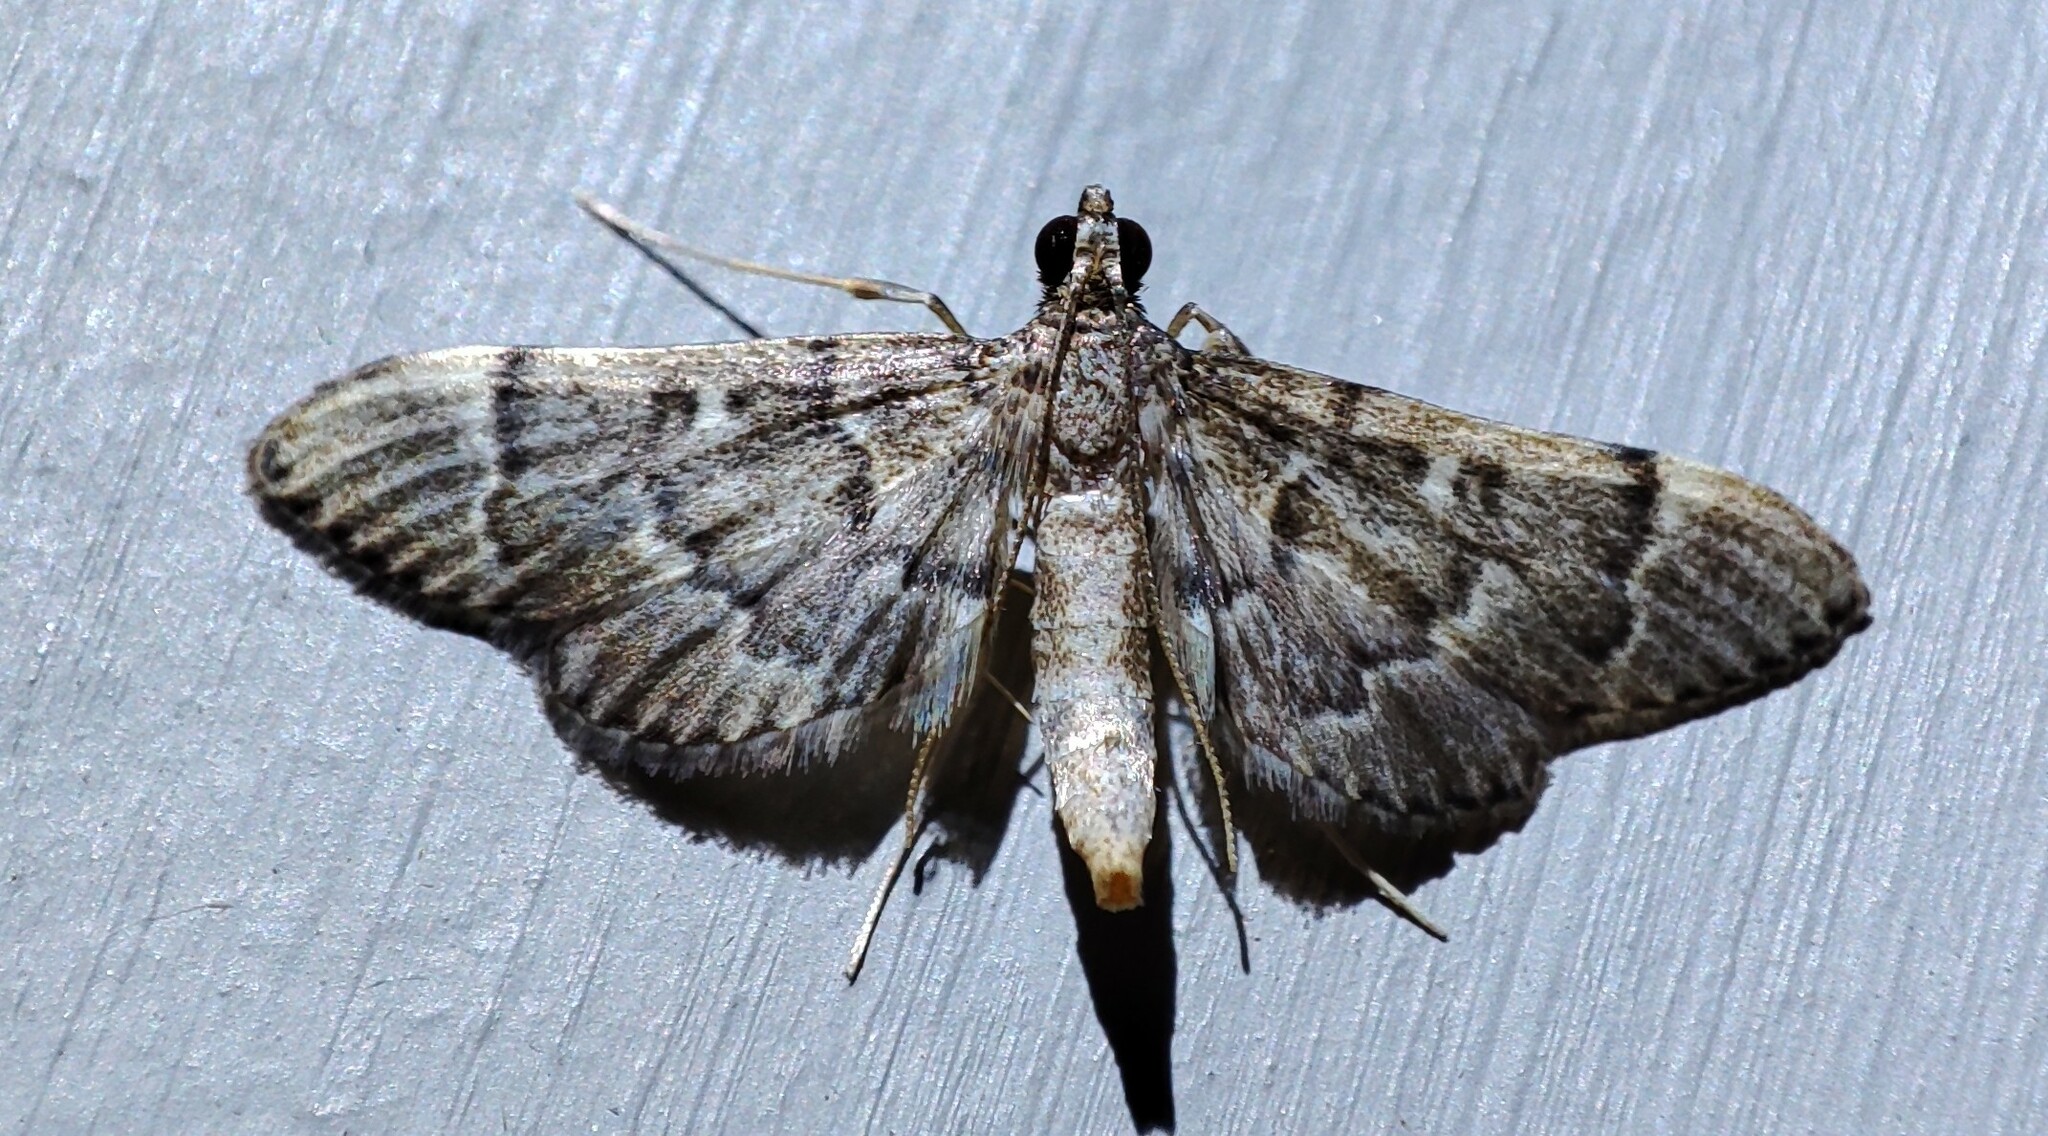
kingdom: Animalia
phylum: Arthropoda
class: Insecta
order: Lepidoptera
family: Crambidae
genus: Duponchelia
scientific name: Duponchelia lanceolalis
